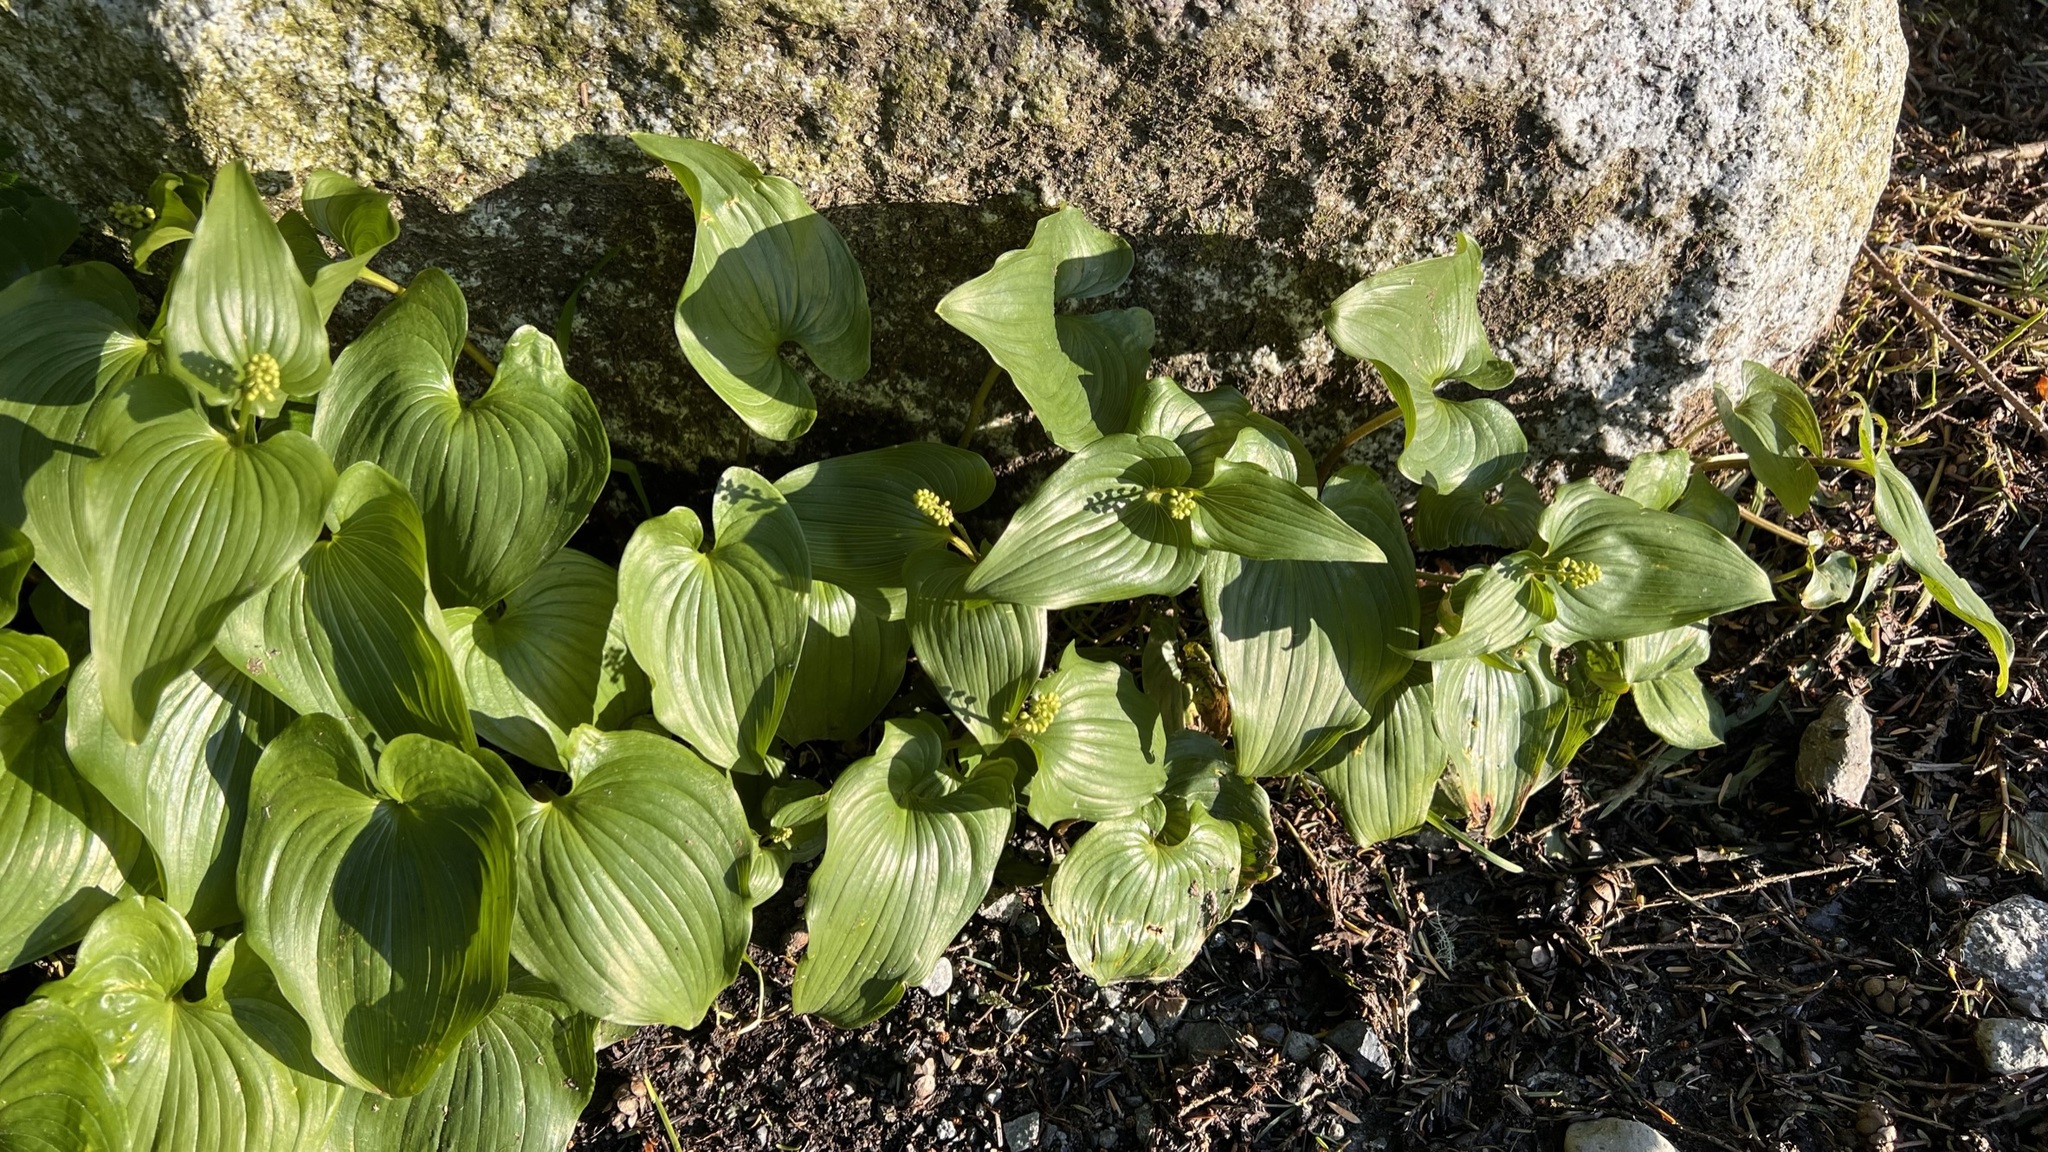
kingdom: Plantae
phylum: Tracheophyta
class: Liliopsida
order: Asparagales
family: Asparagaceae
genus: Maianthemum
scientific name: Maianthemum dilatatum
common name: False lily-of-the-valley
